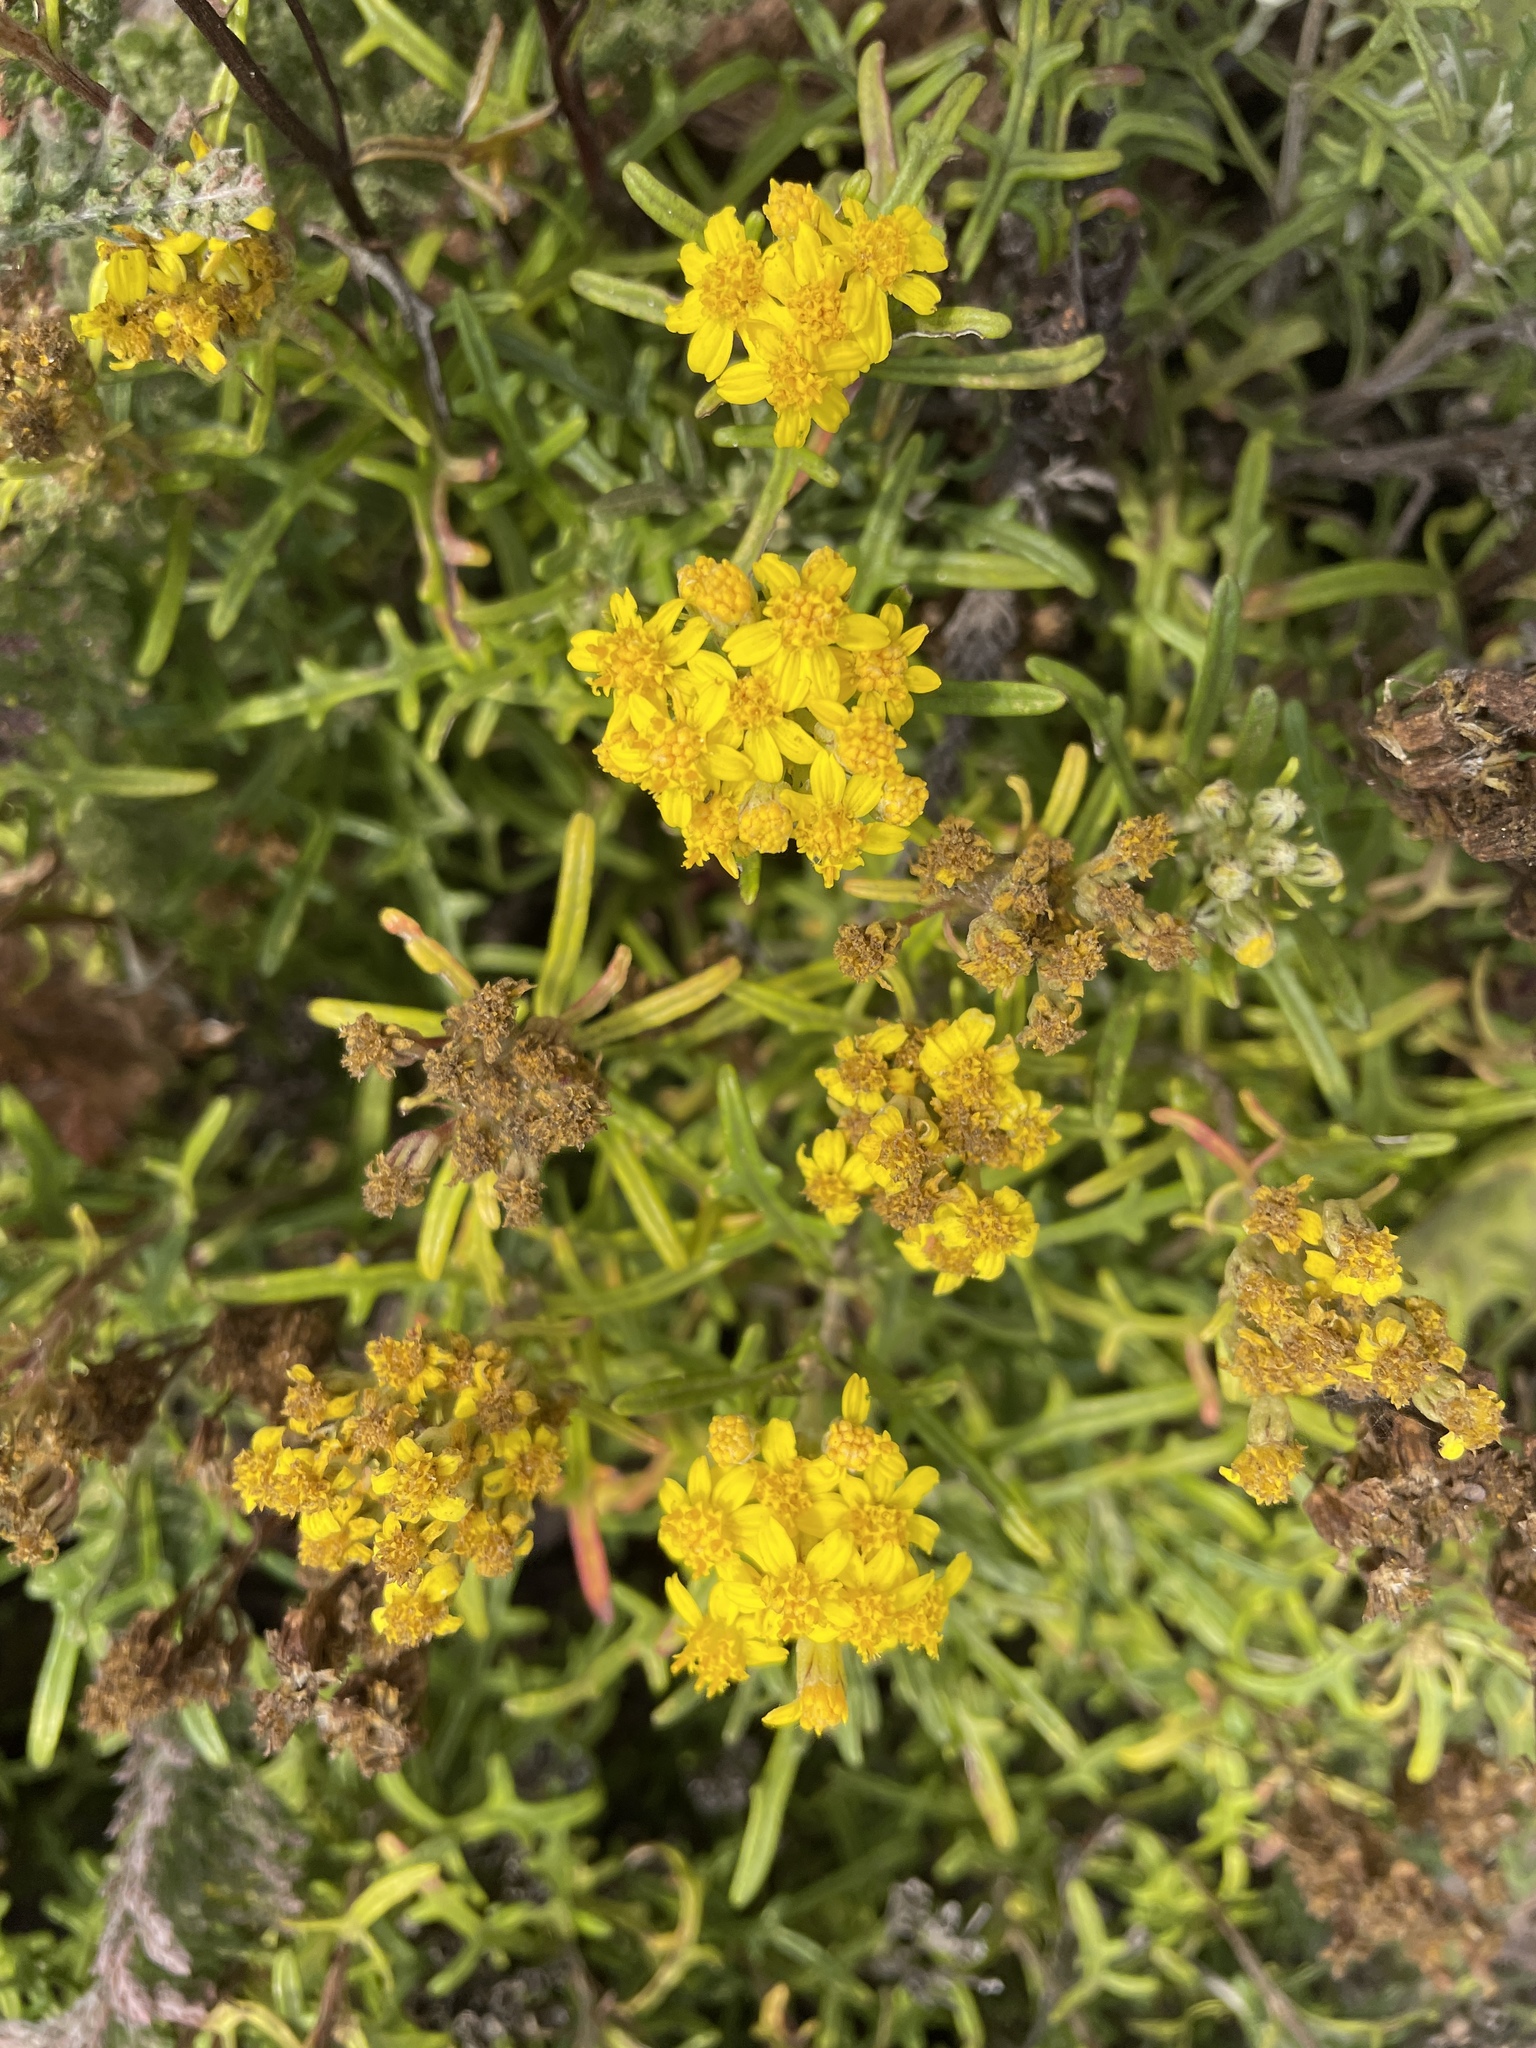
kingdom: Plantae
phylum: Tracheophyta
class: Magnoliopsida
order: Asterales
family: Asteraceae
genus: Eriophyllum
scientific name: Eriophyllum staechadifolium
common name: Lizardtail
